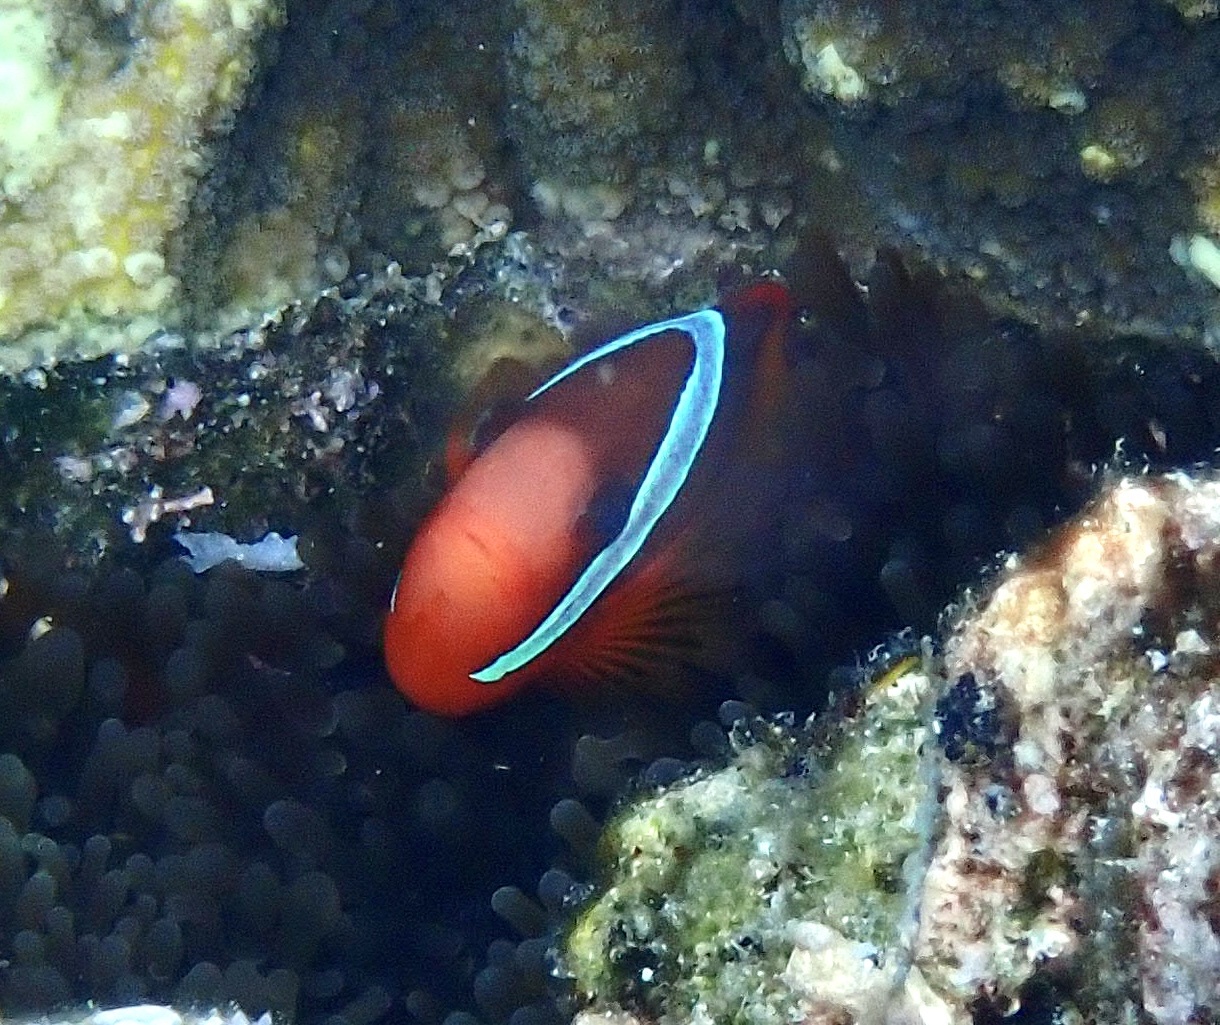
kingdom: Animalia
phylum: Chordata
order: Perciformes
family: Pomacentridae
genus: Amphiprion
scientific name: Amphiprion melanopus
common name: Black anemonefish
